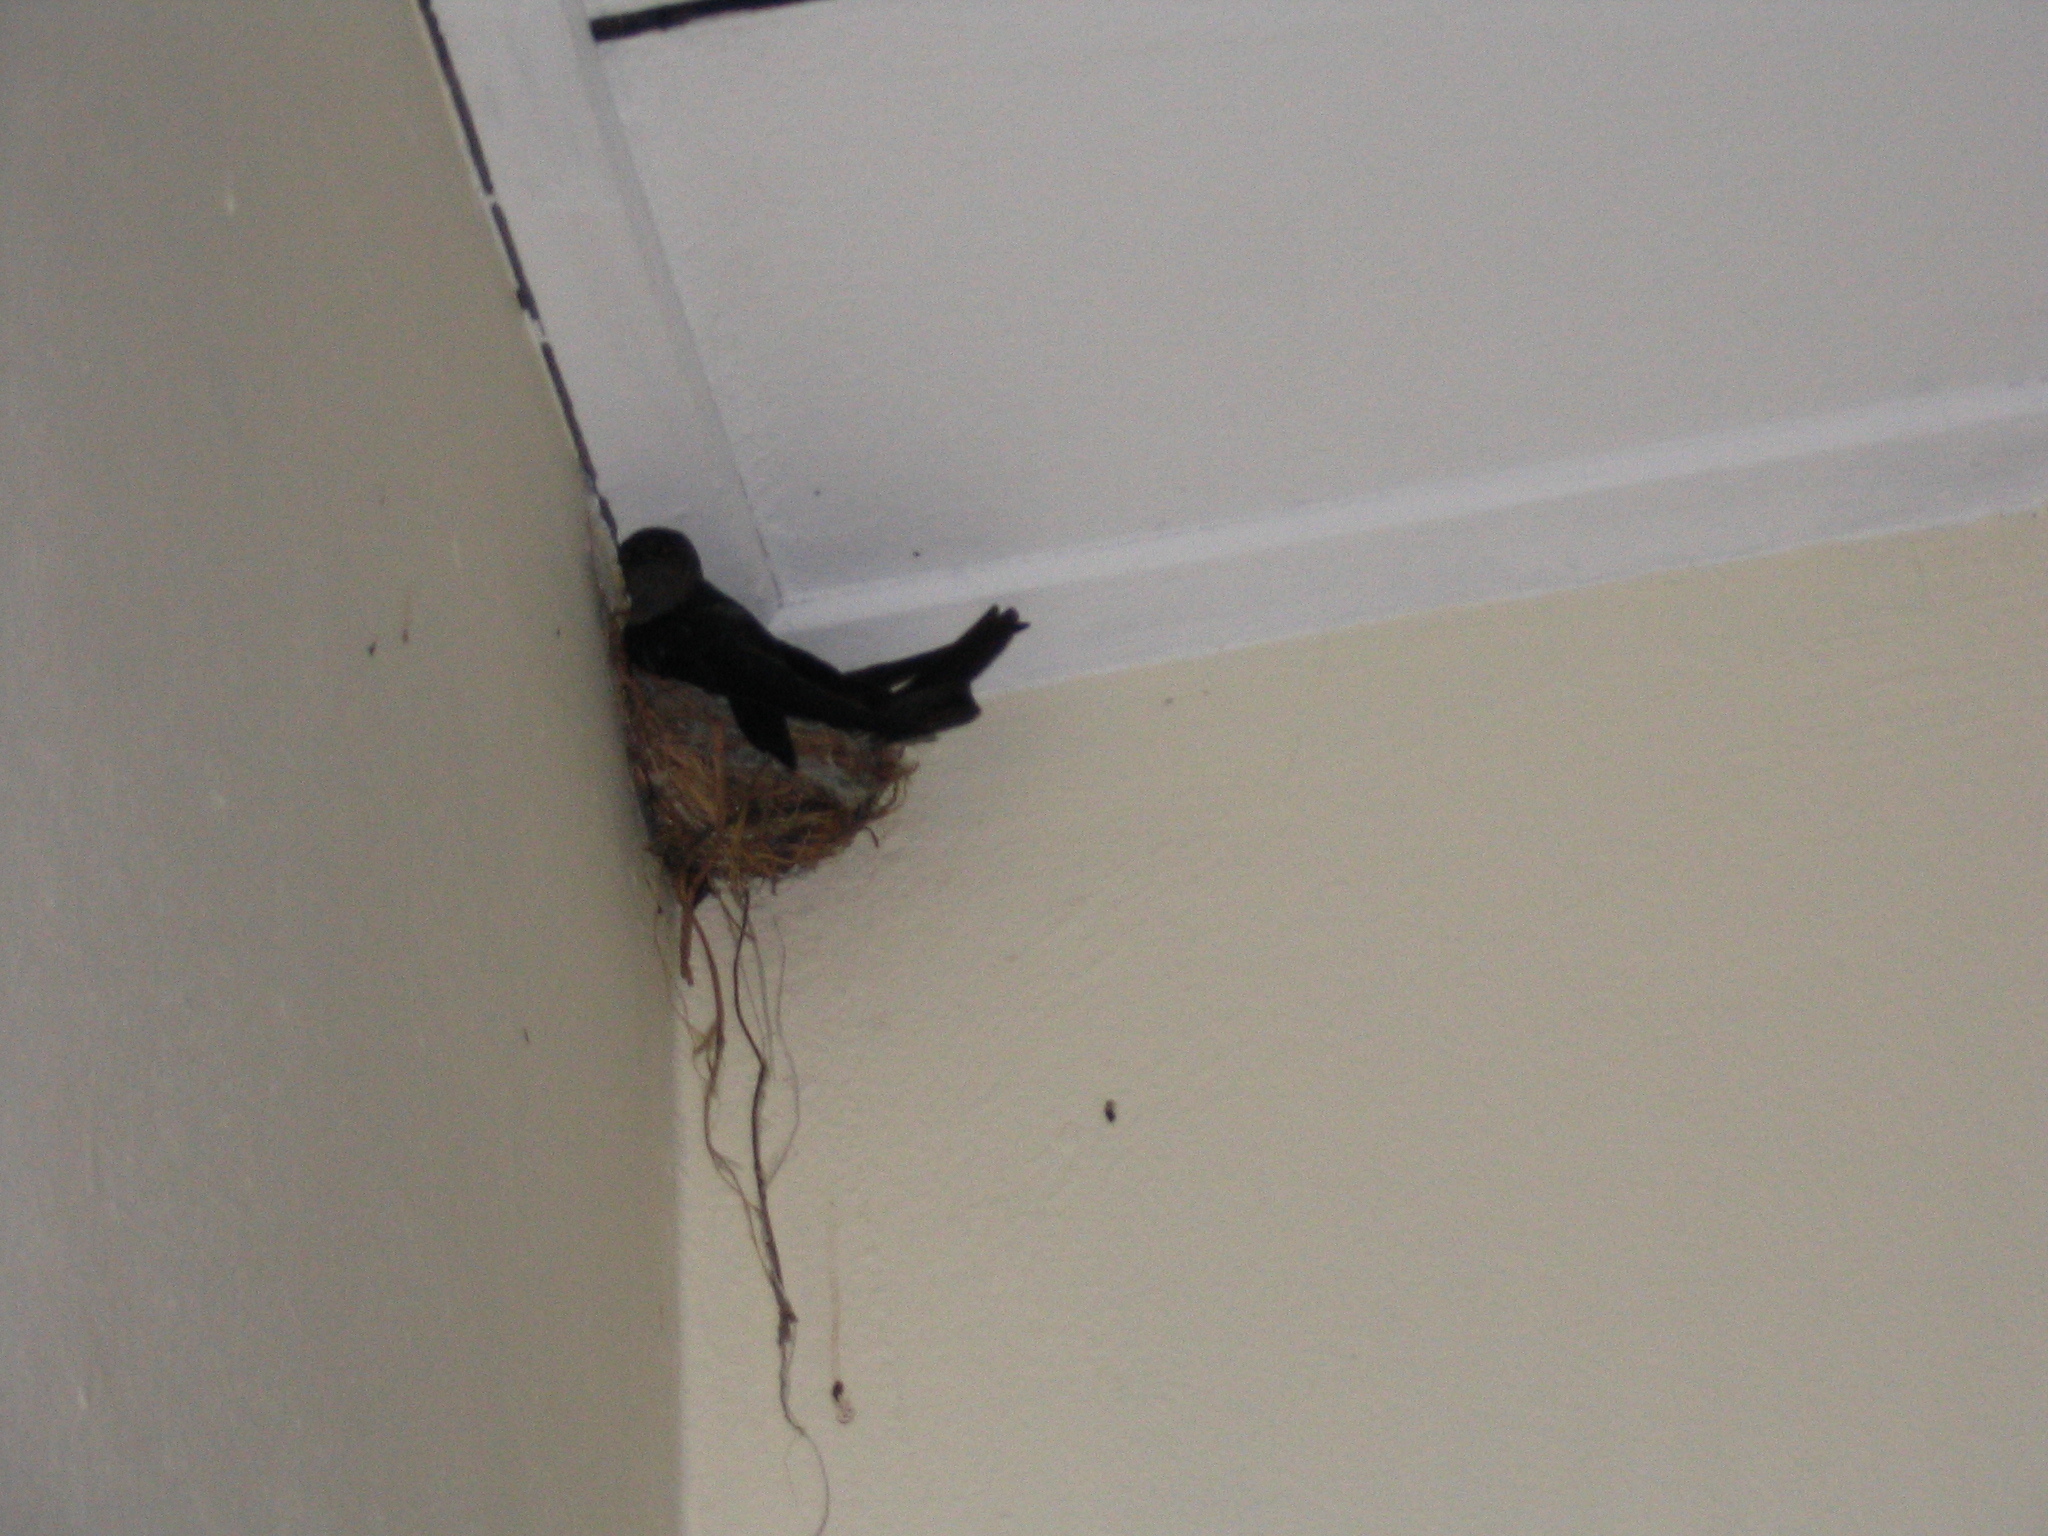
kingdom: Animalia
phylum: Chordata
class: Aves
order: Apodiformes
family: Apodidae
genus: Collocalia
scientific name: Collocalia affinis
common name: Plume-toed swiftlet
